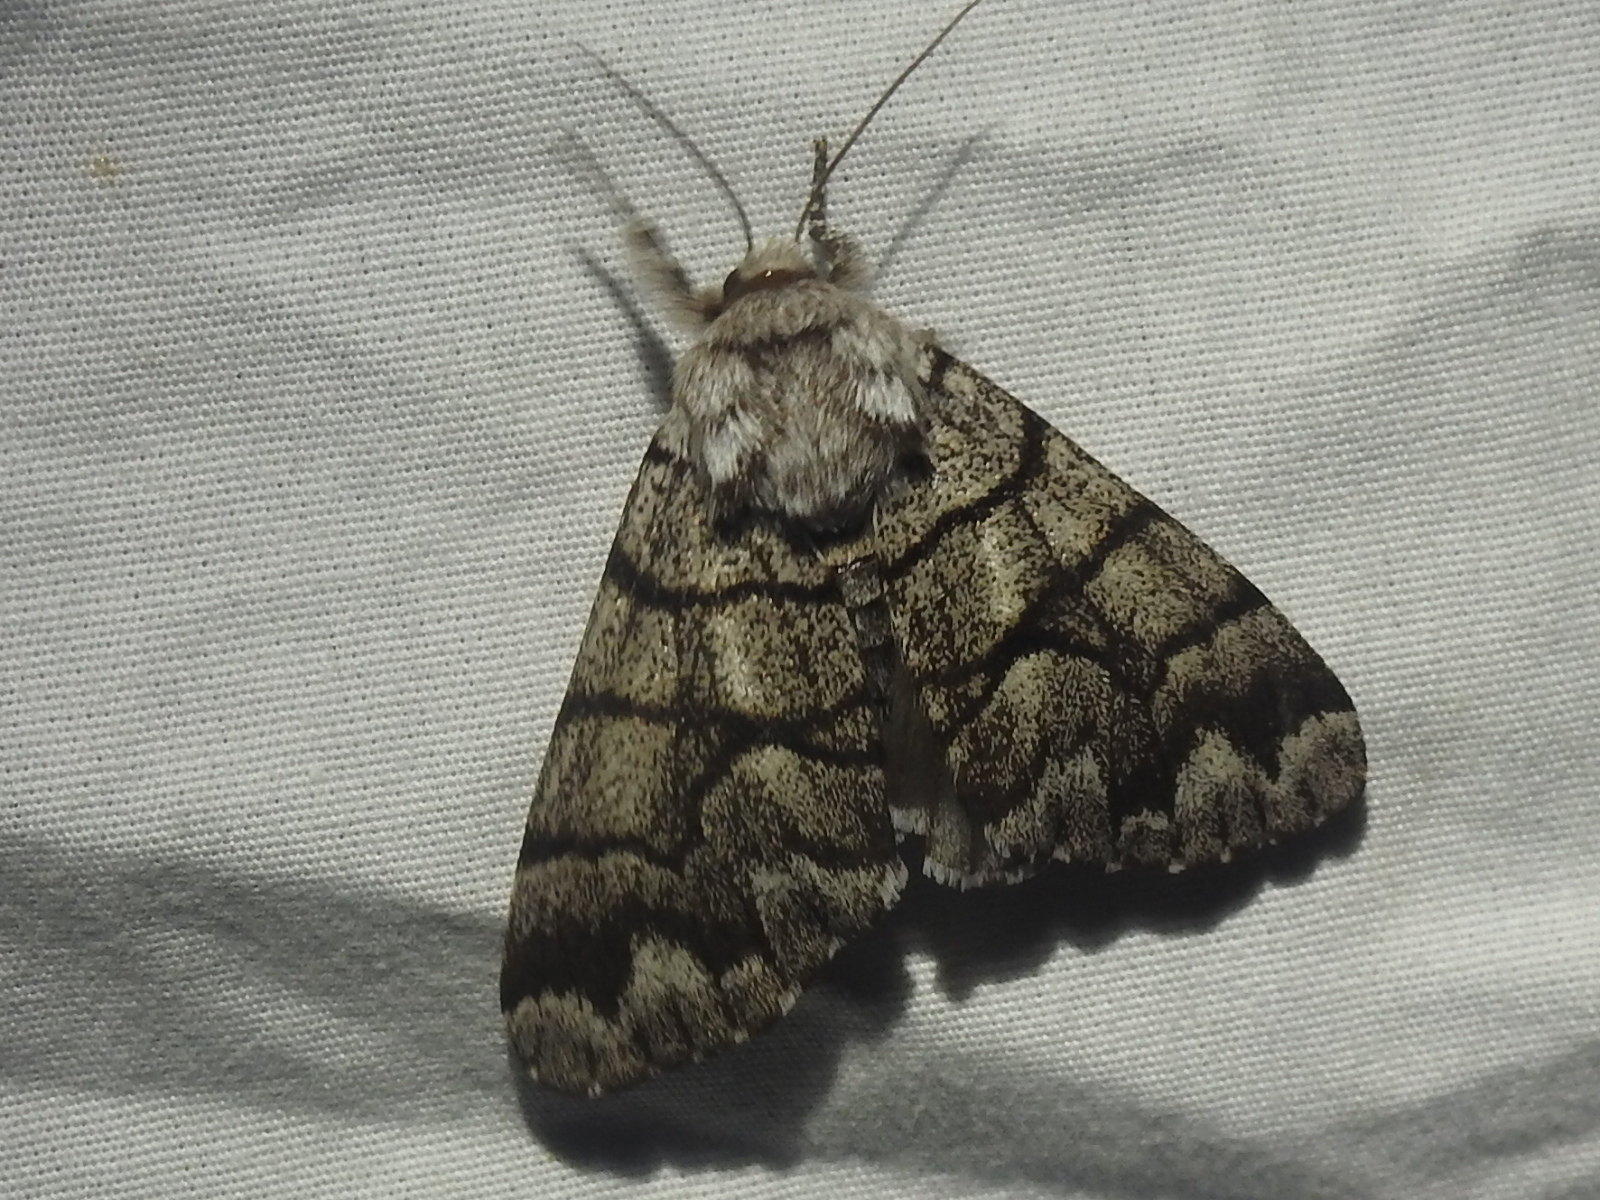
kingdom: Animalia
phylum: Arthropoda
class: Insecta
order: Lepidoptera
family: Noctuidae
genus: Panthea
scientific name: Panthea furcilla
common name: Eastern panthea moth
